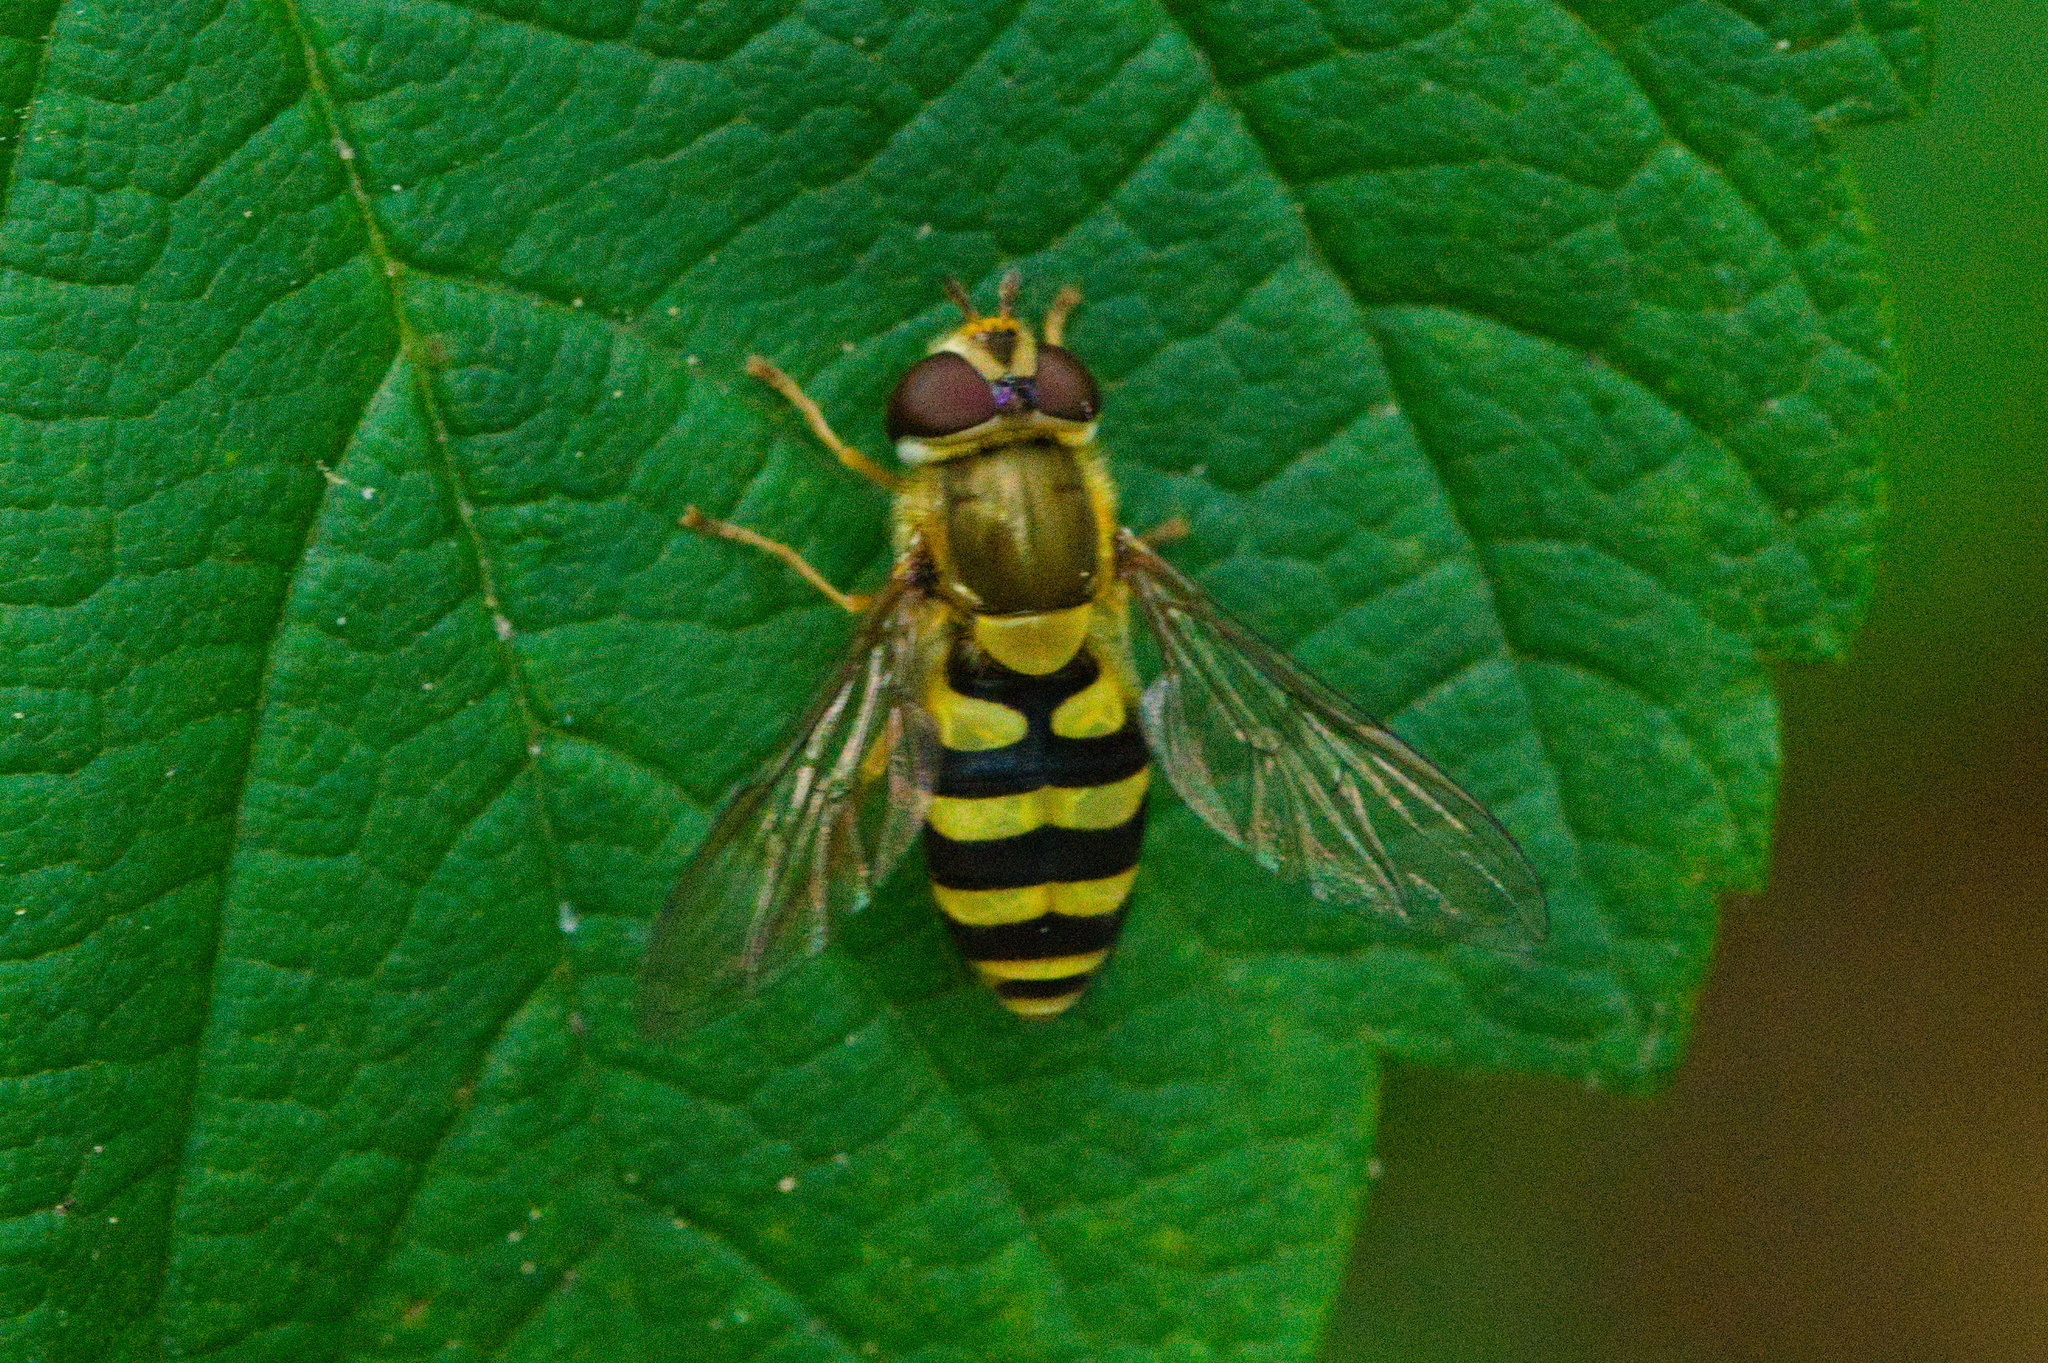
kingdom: Animalia
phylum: Arthropoda
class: Insecta
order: Diptera
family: Syrphidae
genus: Syrphus
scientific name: Syrphus
